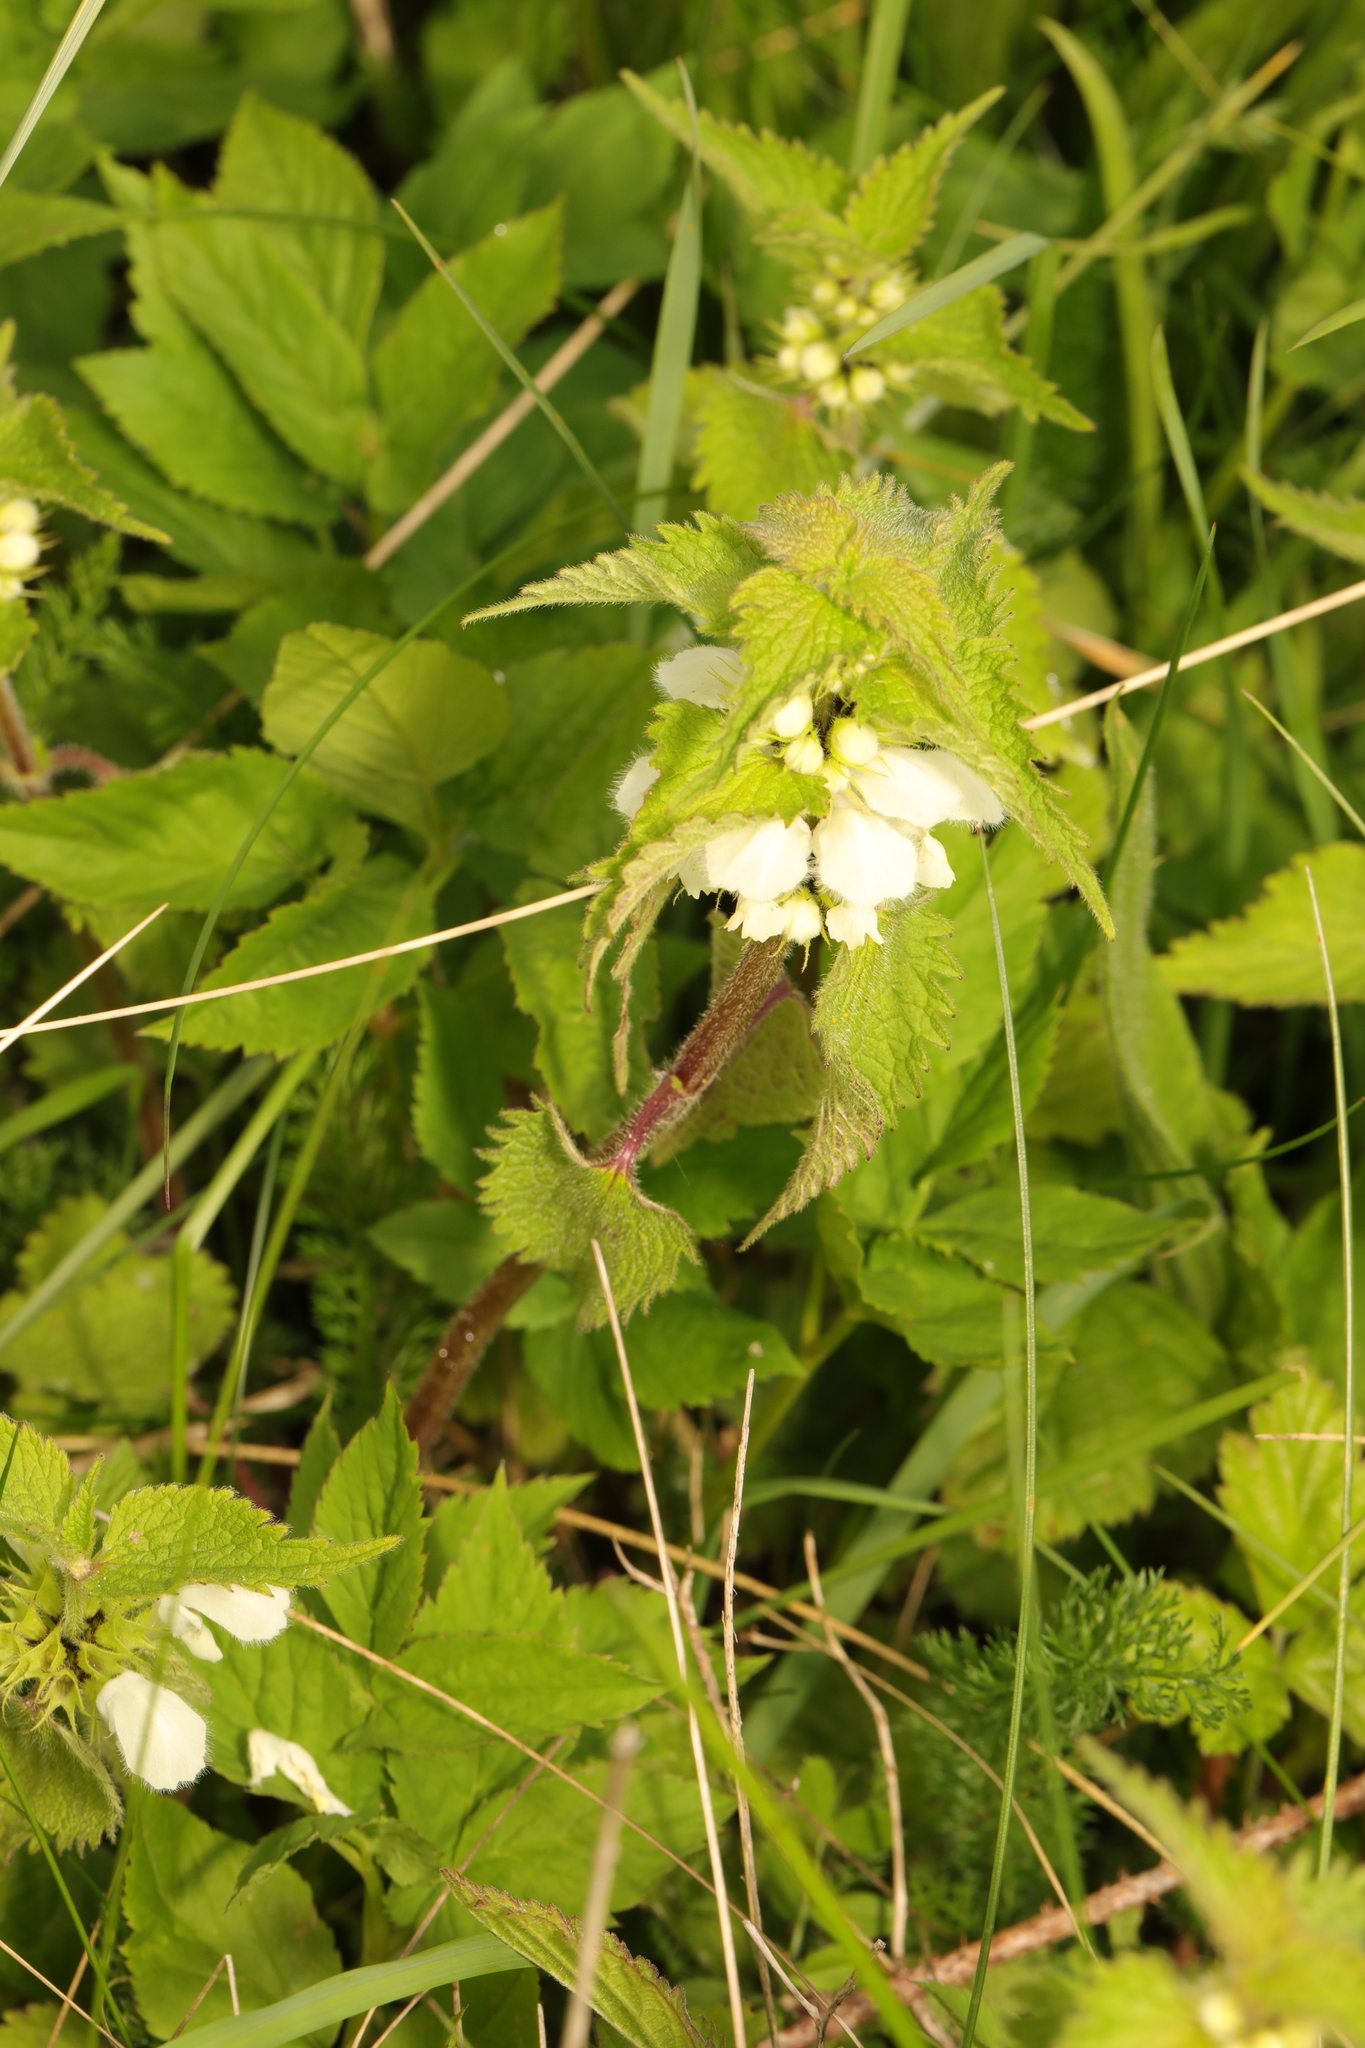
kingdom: Plantae
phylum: Tracheophyta
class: Magnoliopsida
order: Lamiales
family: Lamiaceae
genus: Lamium
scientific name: Lamium album
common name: White dead-nettle
